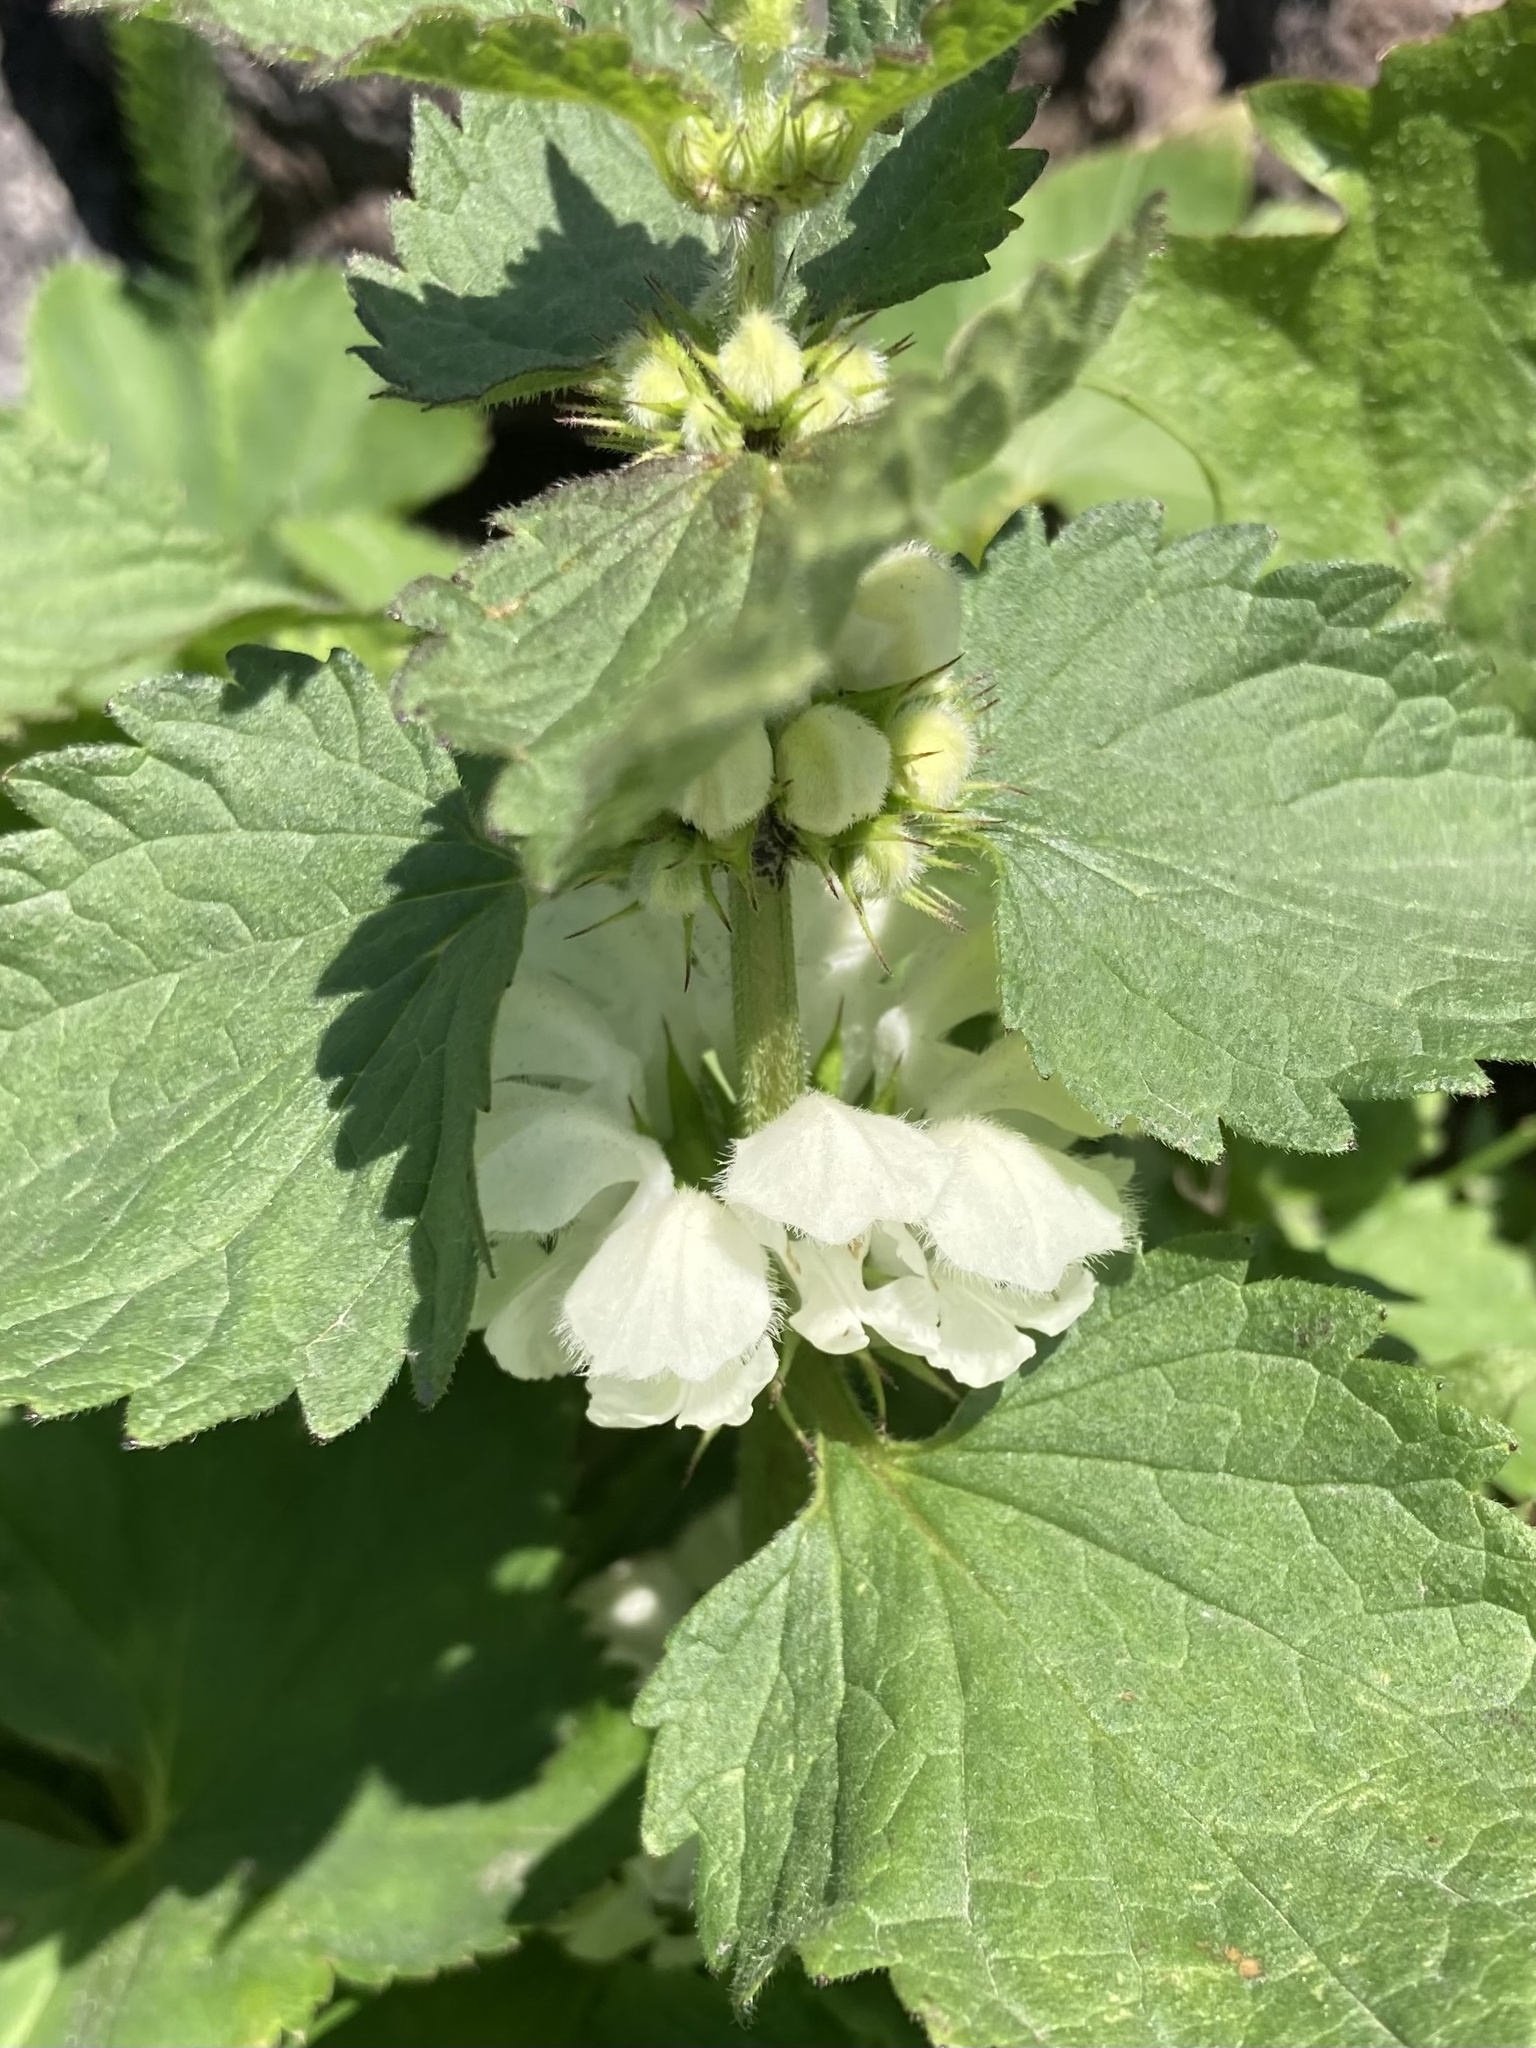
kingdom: Plantae
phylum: Tracheophyta
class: Magnoliopsida
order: Lamiales
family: Lamiaceae
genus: Lamium
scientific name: Lamium album
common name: White dead-nettle
